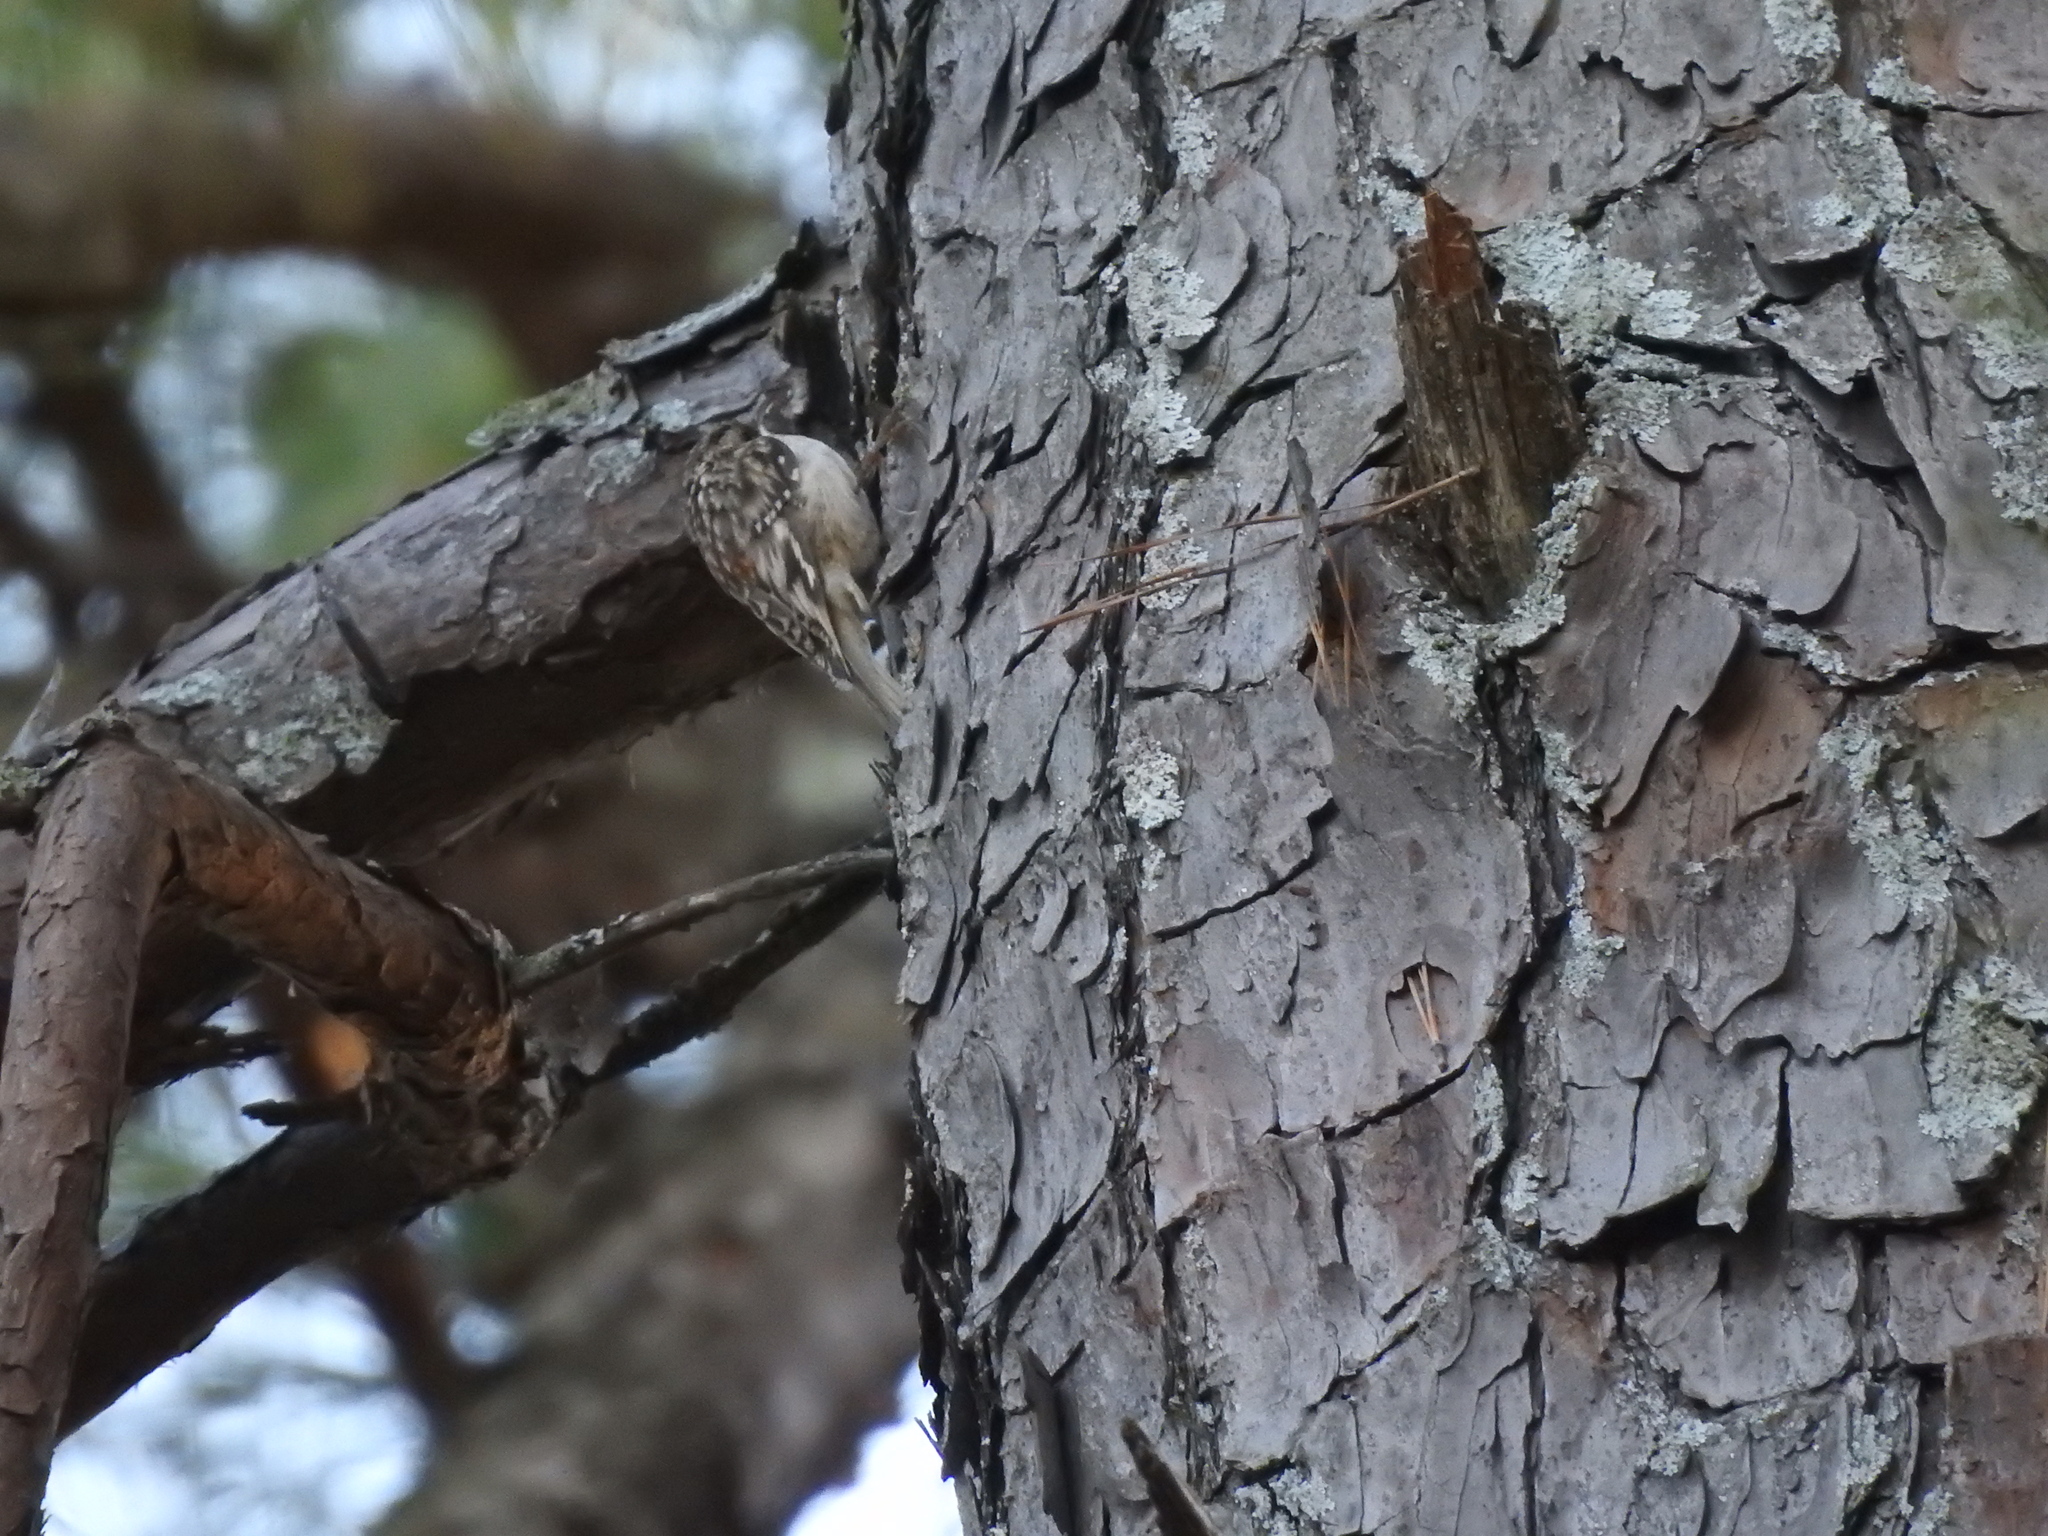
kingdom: Animalia
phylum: Chordata
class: Aves
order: Passeriformes
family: Certhiidae
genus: Certhia
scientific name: Certhia americana
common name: Brown creeper
